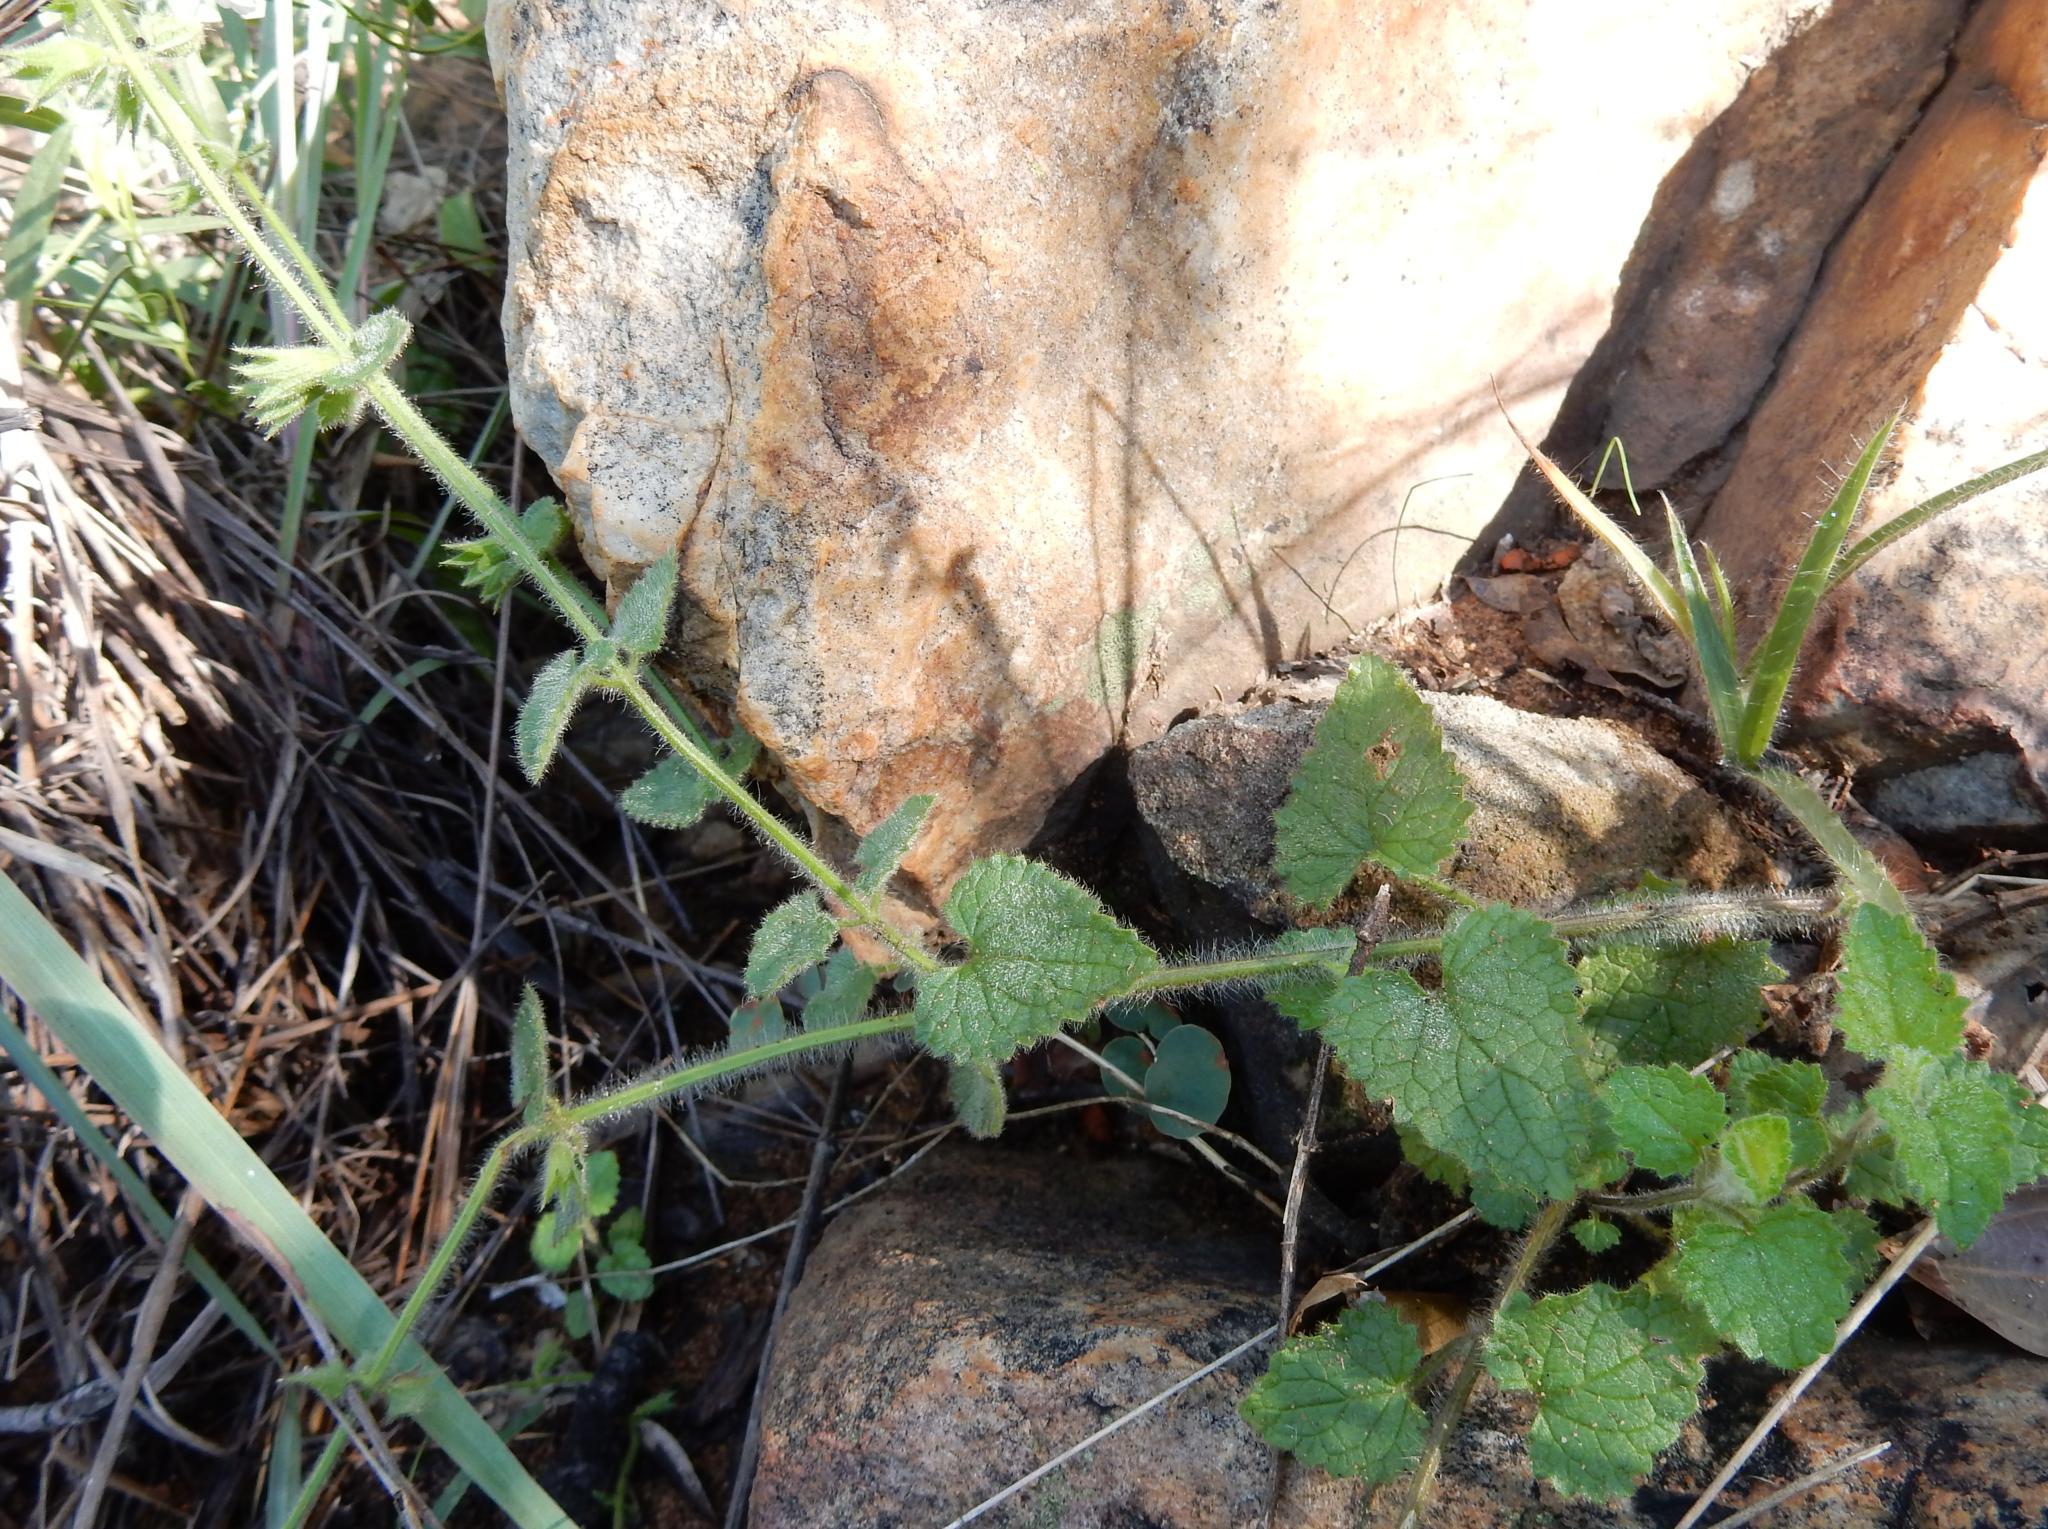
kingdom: Plantae
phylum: Tracheophyta
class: Magnoliopsida
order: Lamiales
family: Lamiaceae
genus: Stachys
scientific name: Stachys natalensis
